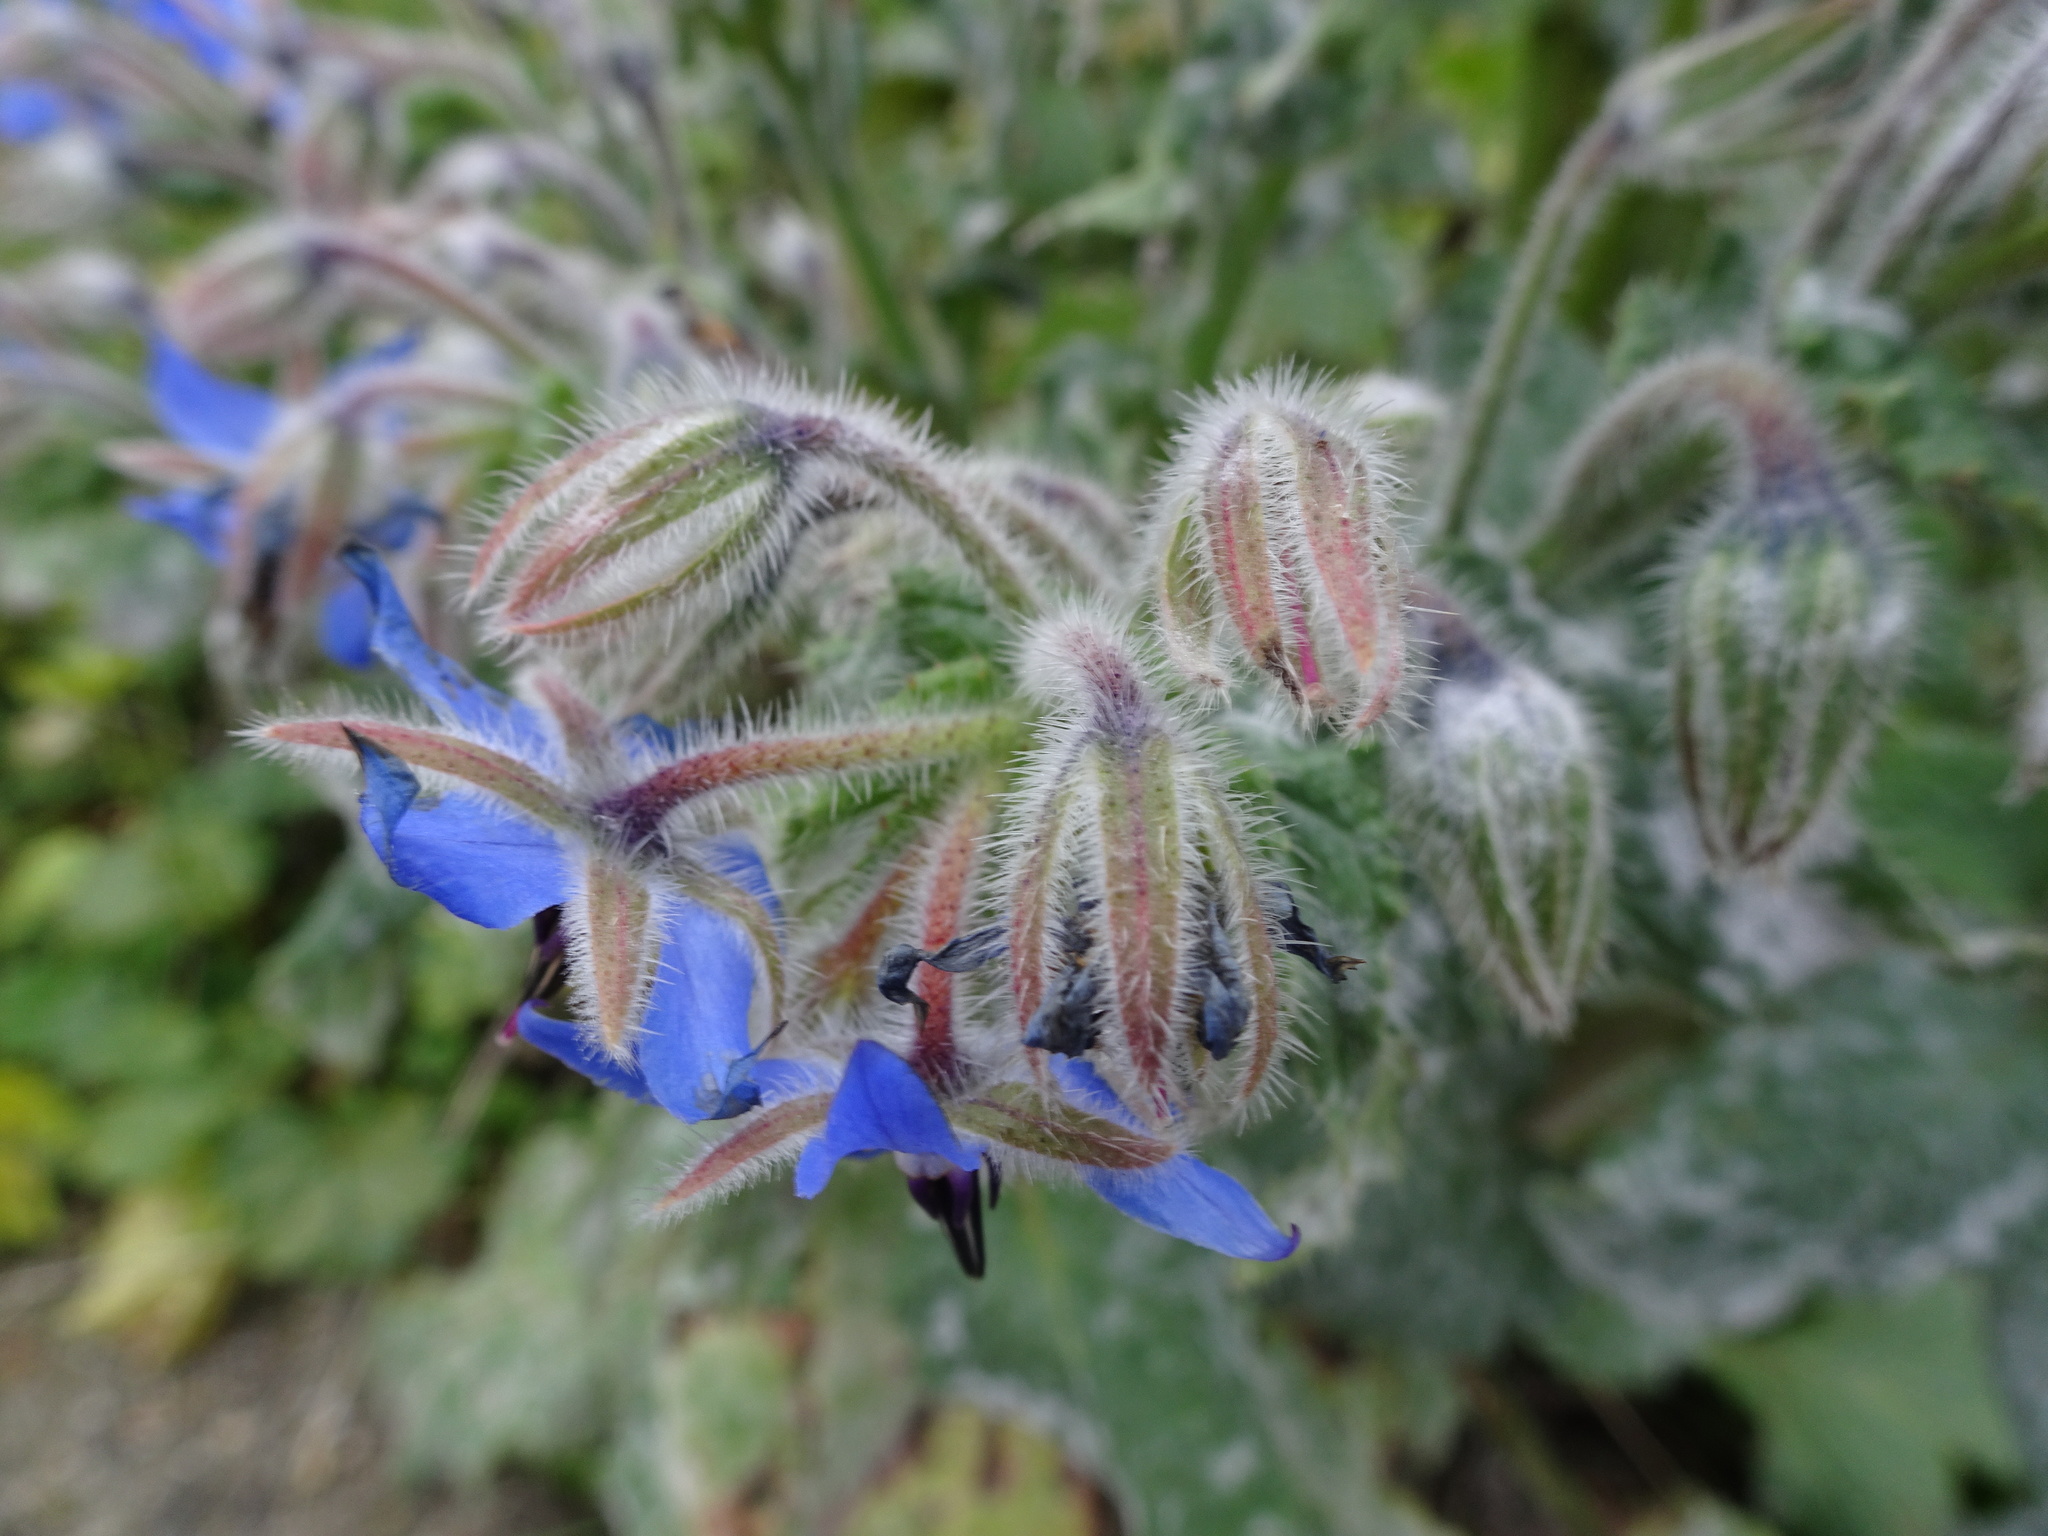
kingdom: Plantae
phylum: Tracheophyta
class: Magnoliopsida
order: Boraginales
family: Boraginaceae
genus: Borago
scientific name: Borago officinalis
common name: Borage
